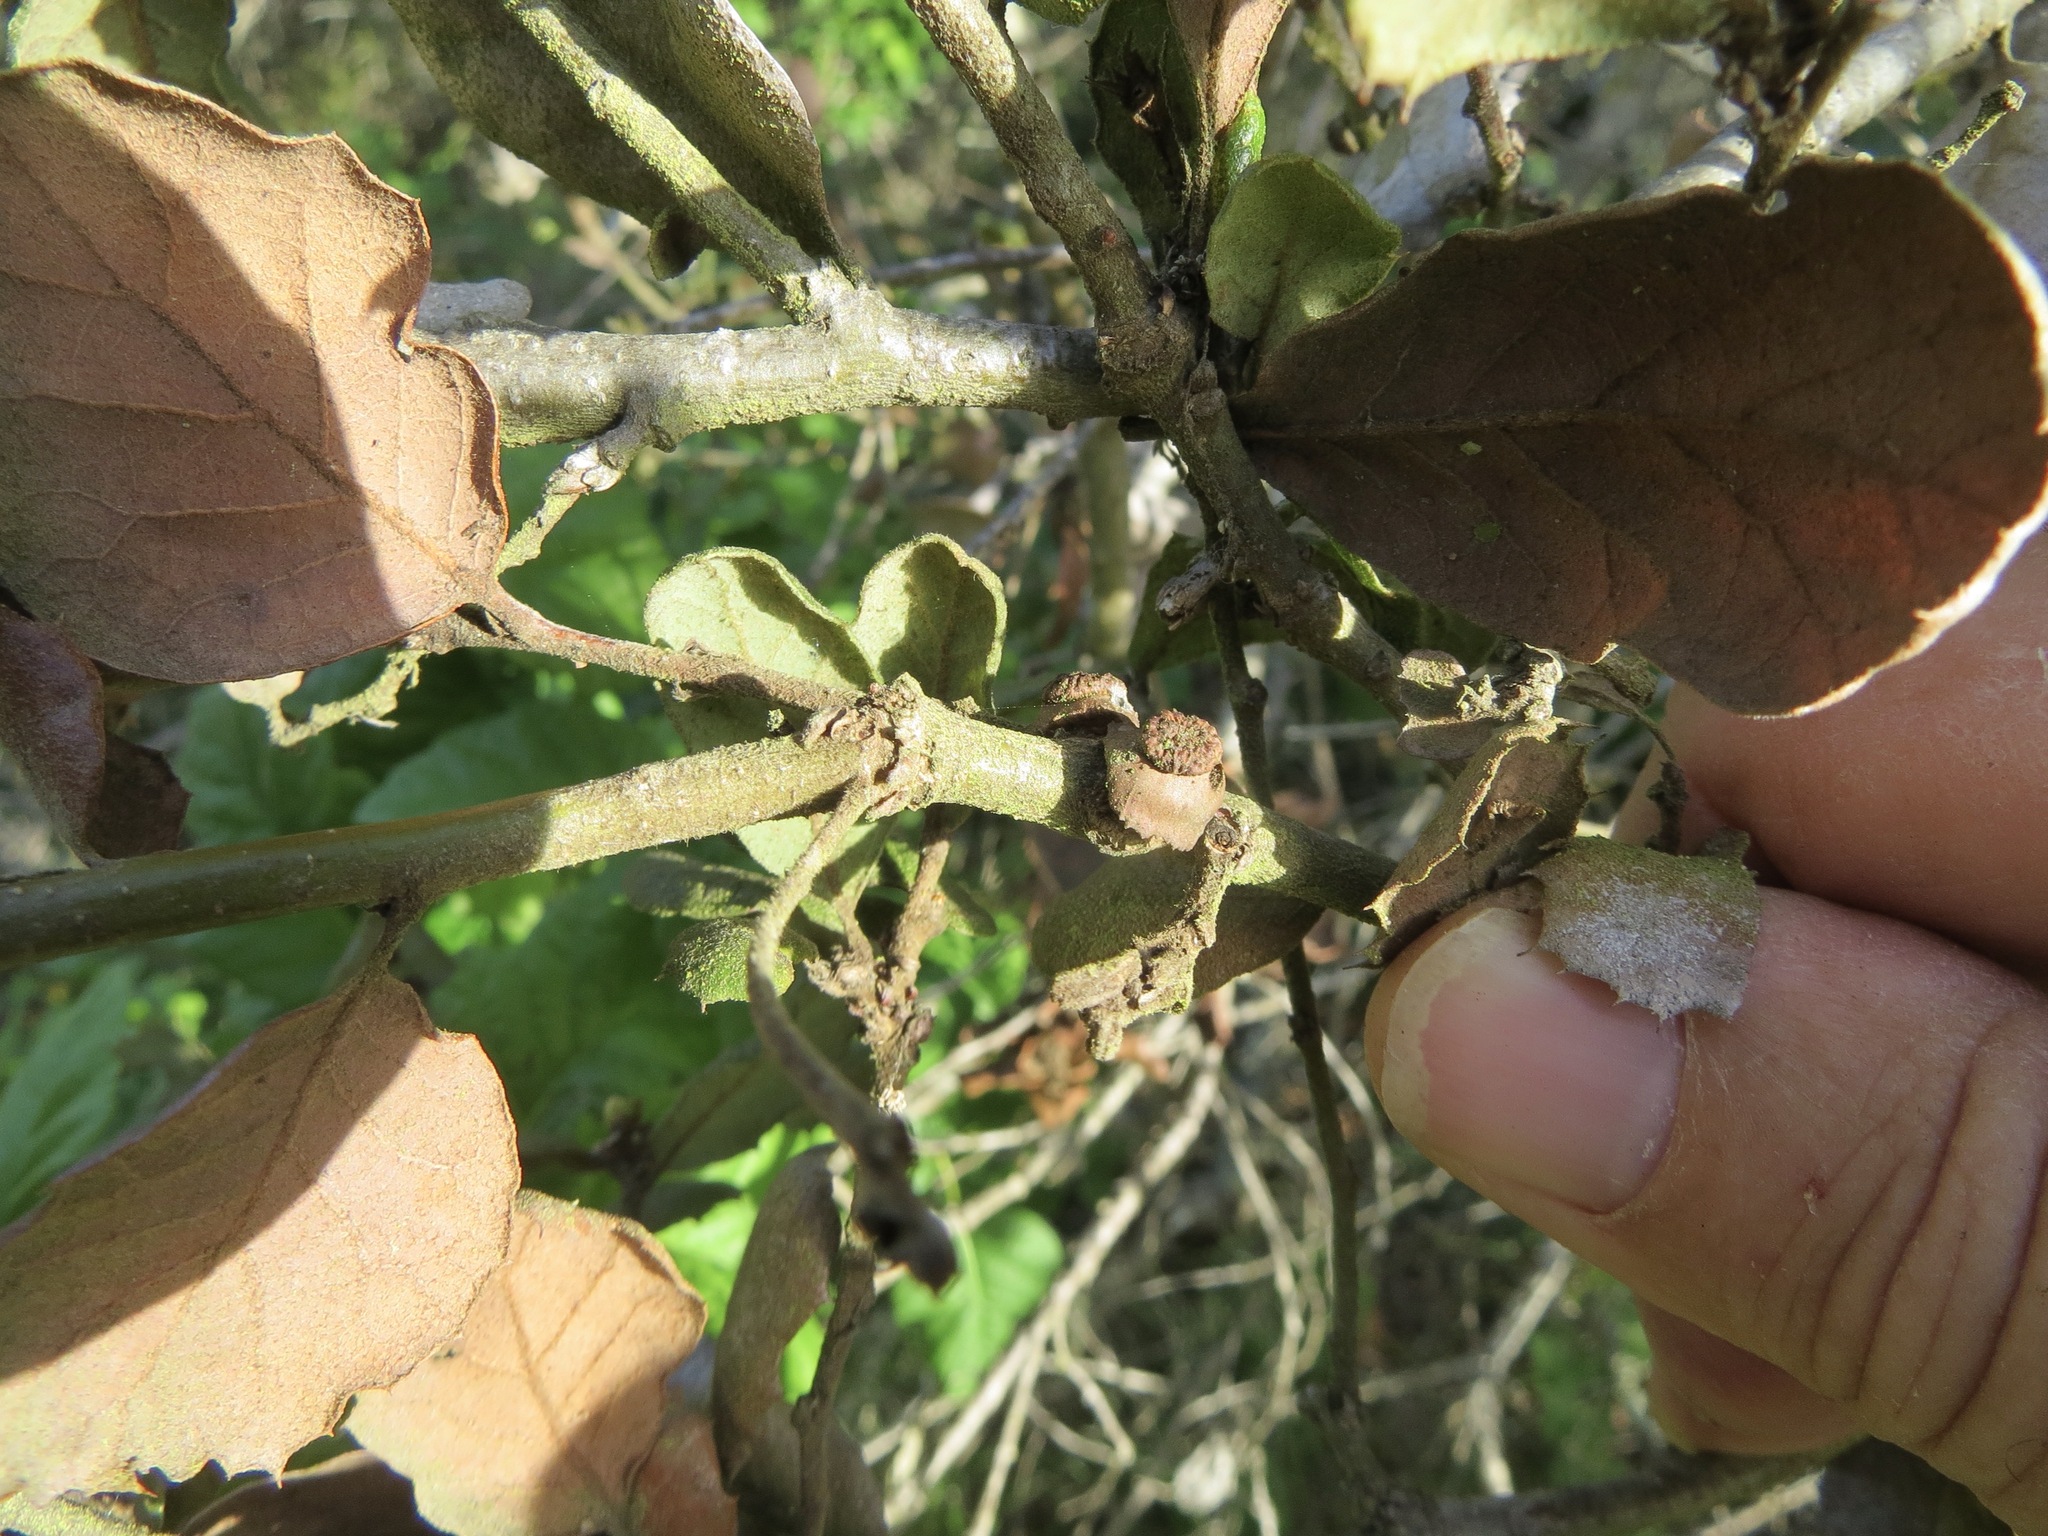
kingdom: Animalia
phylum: Arthropoda
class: Insecta
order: Hymenoptera
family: Cynipidae
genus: Disholcaspis
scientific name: Disholcaspis prehensa
